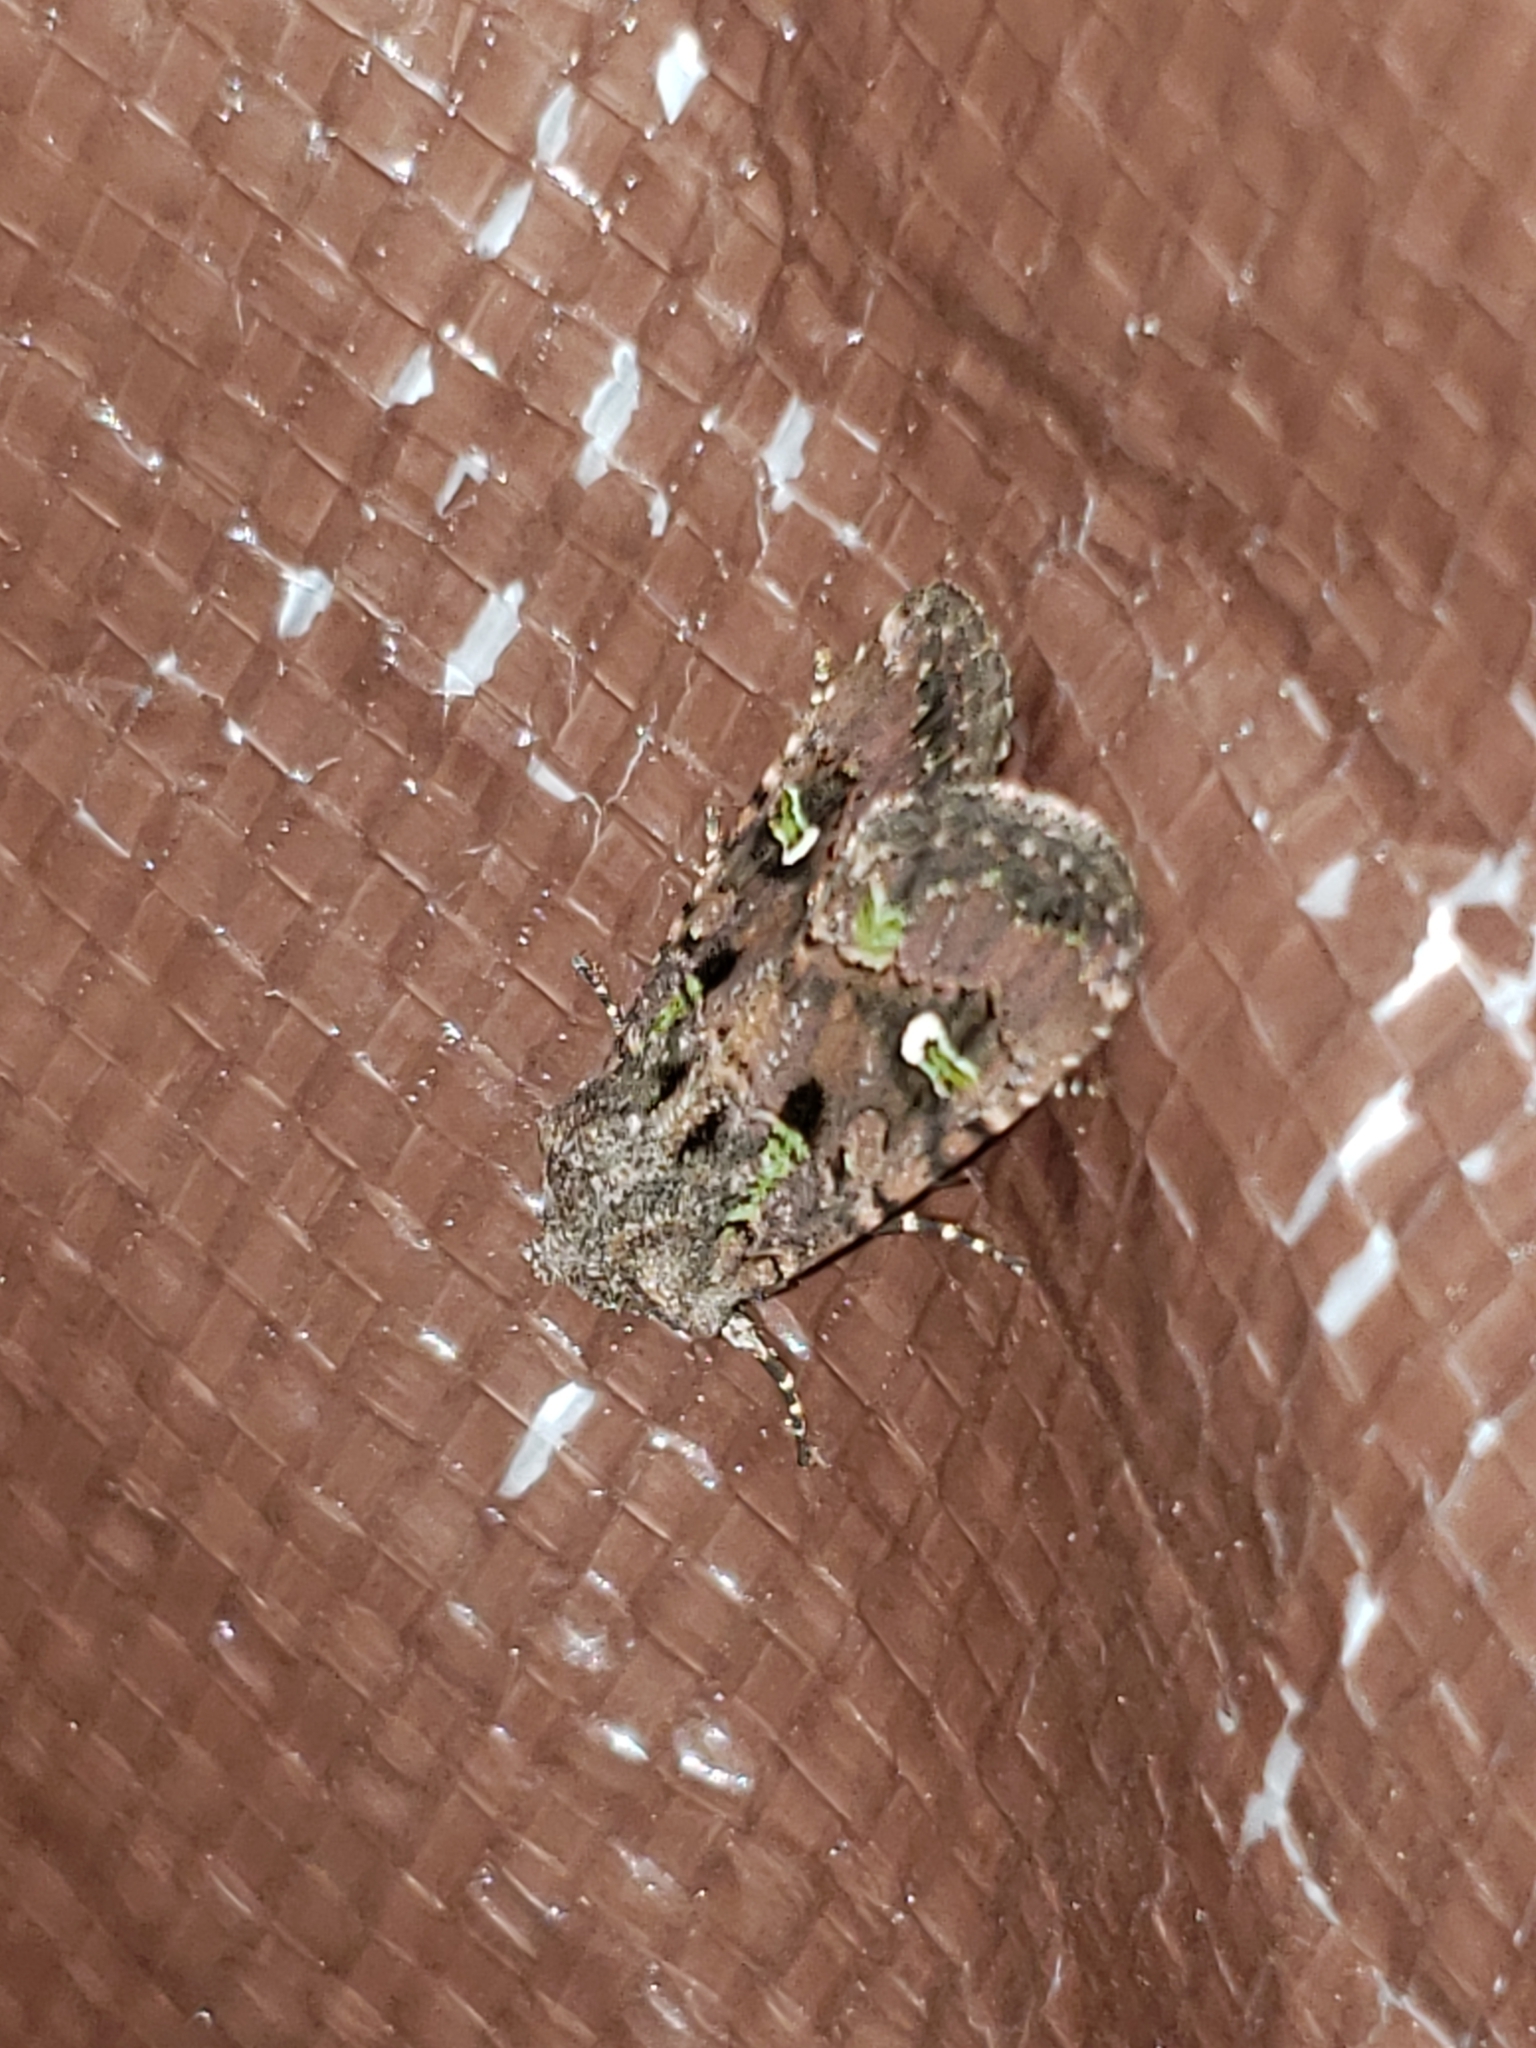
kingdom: Animalia
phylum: Arthropoda
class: Insecta
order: Lepidoptera
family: Noctuidae
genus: Lacinipolia
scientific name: Lacinipolia renigera
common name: Kidney-spotted minor
